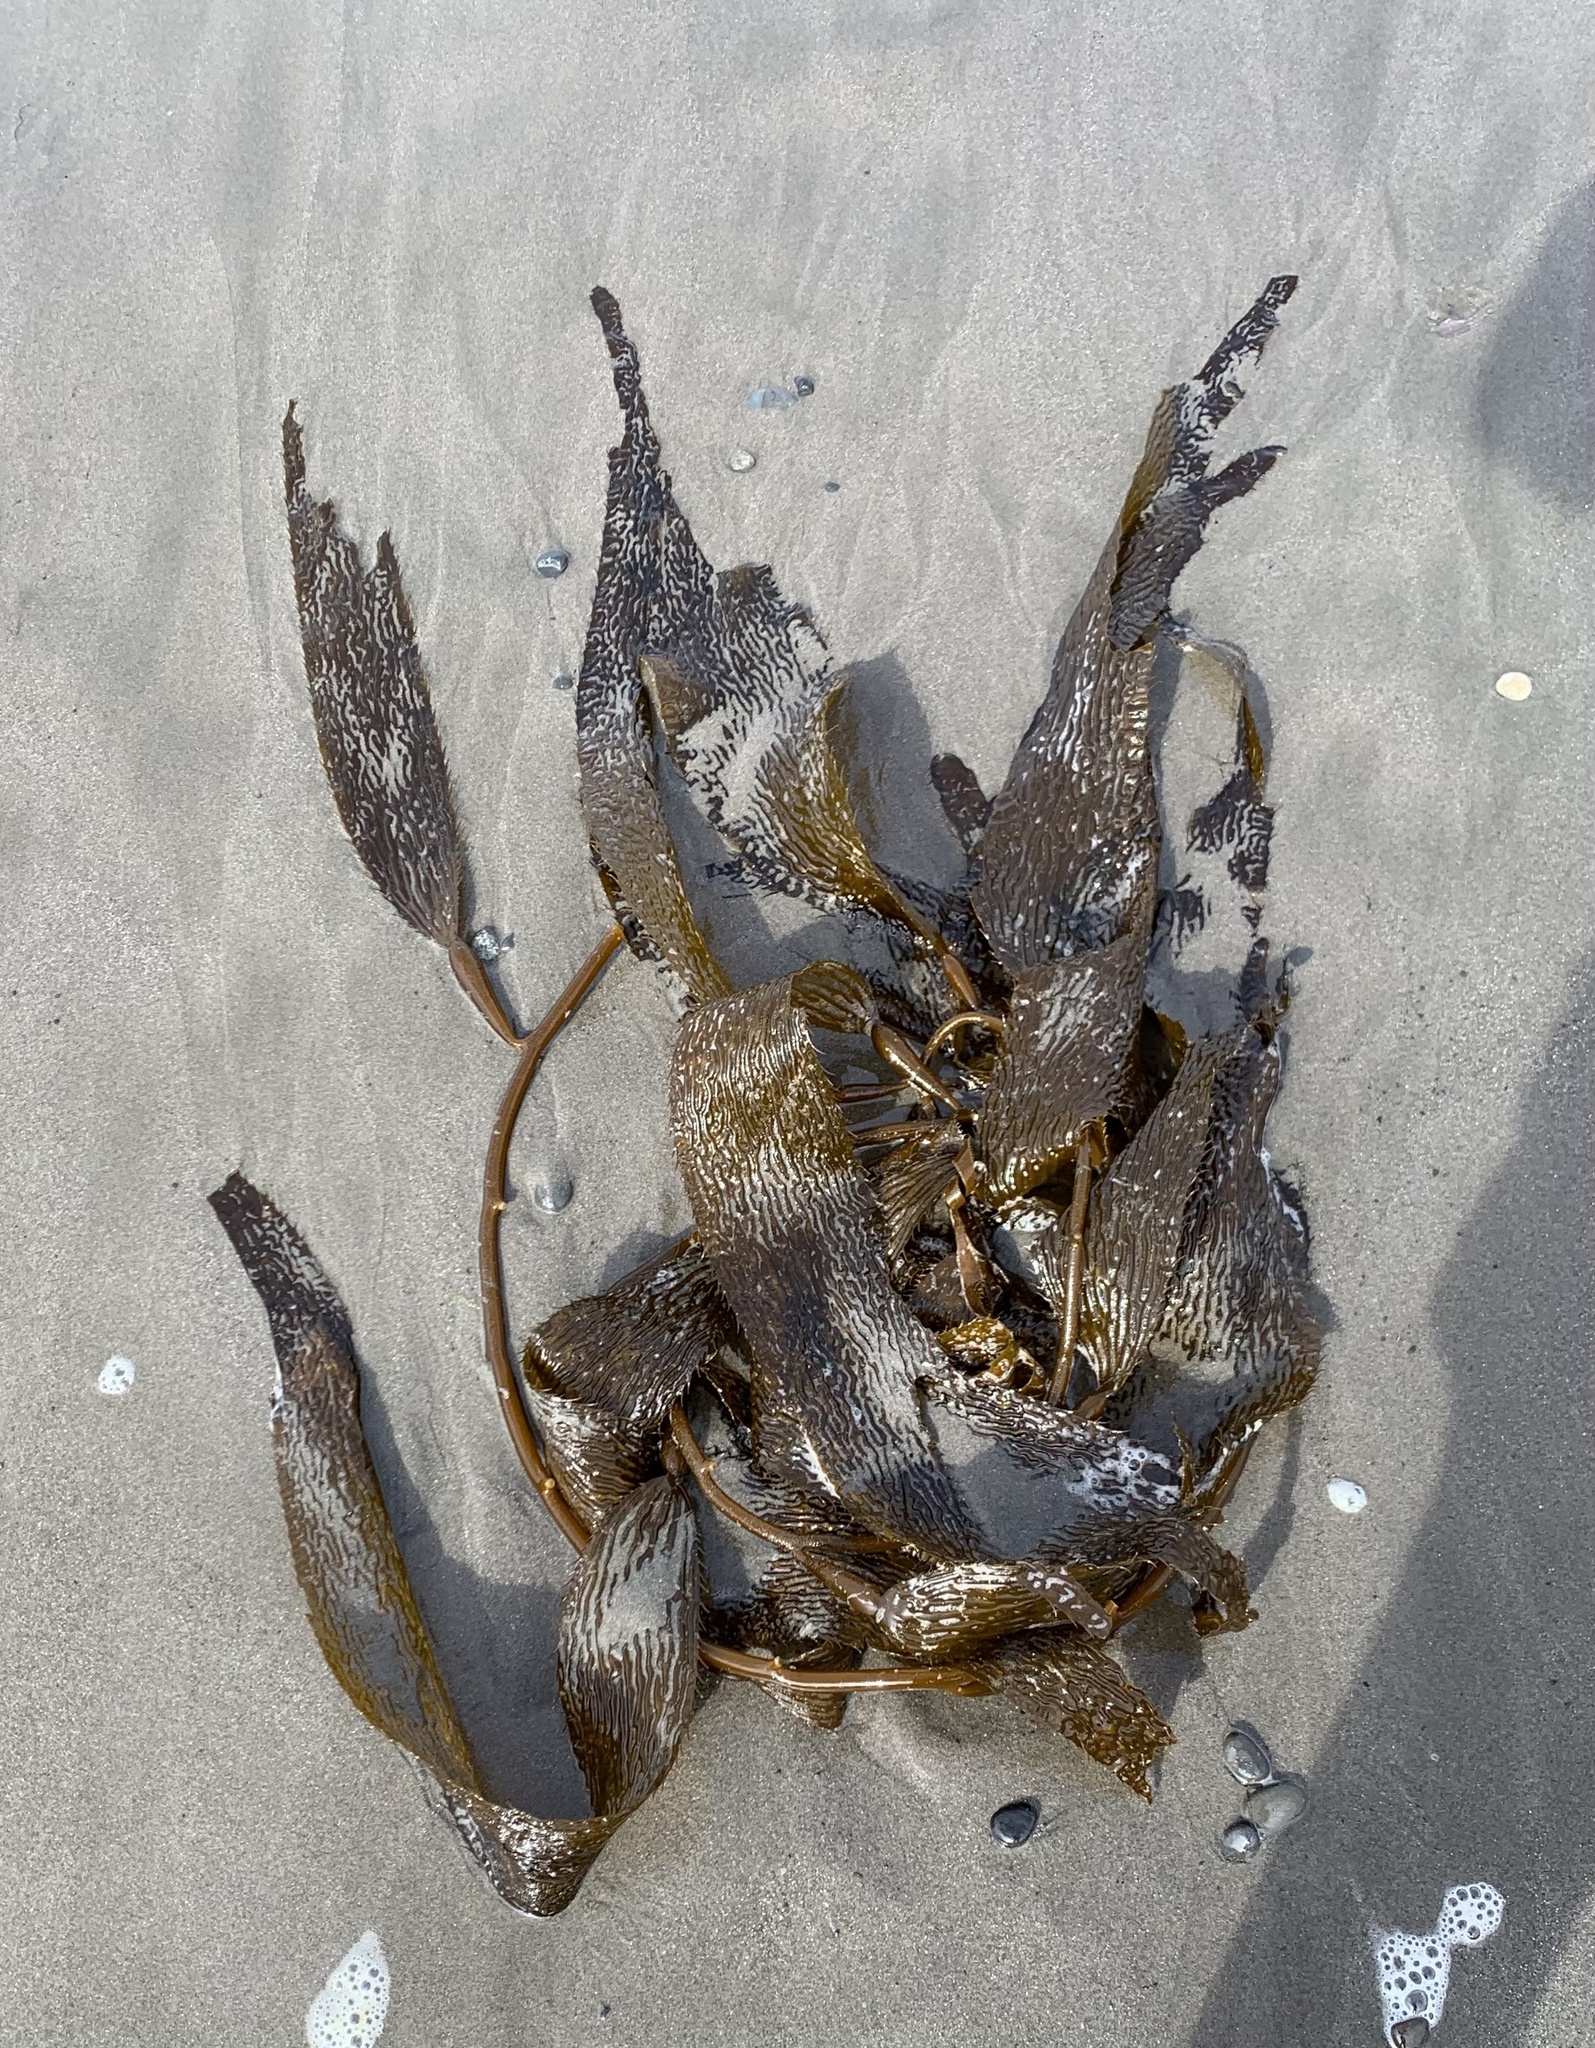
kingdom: Chromista
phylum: Ochrophyta
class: Phaeophyceae
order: Laminariales
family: Laminariaceae
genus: Macrocystis
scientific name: Macrocystis pyrifera
